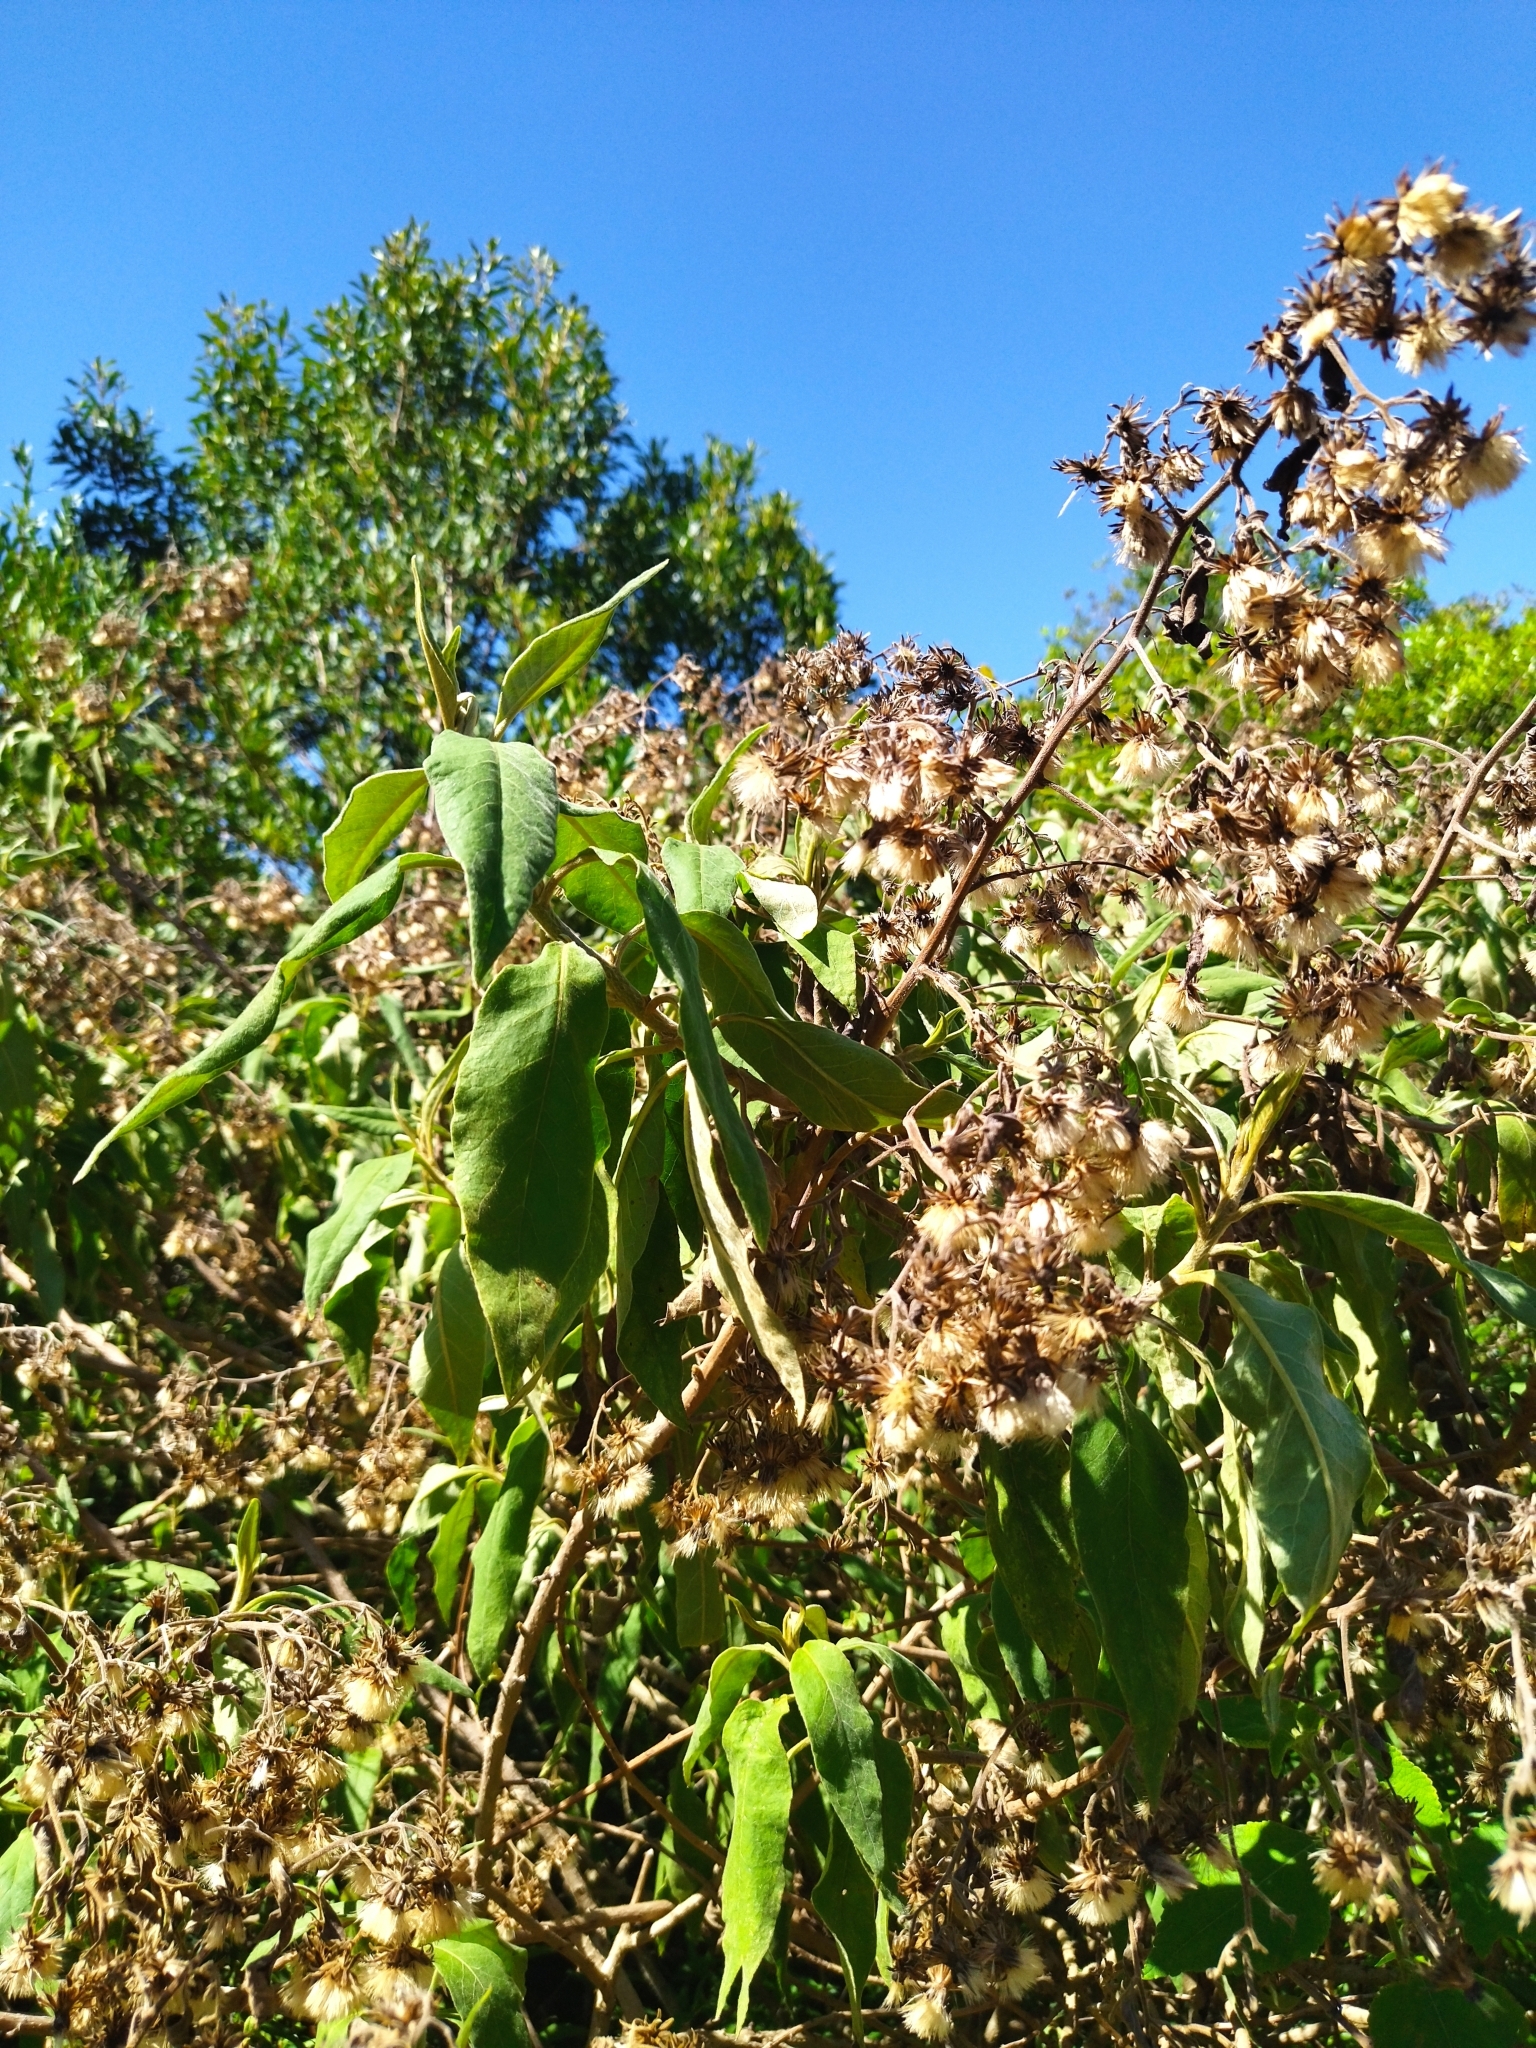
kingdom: Plantae
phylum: Tracheophyta
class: Magnoliopsida
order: Asterales
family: Asteraceae
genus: Trixis
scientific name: Trixis praestans
